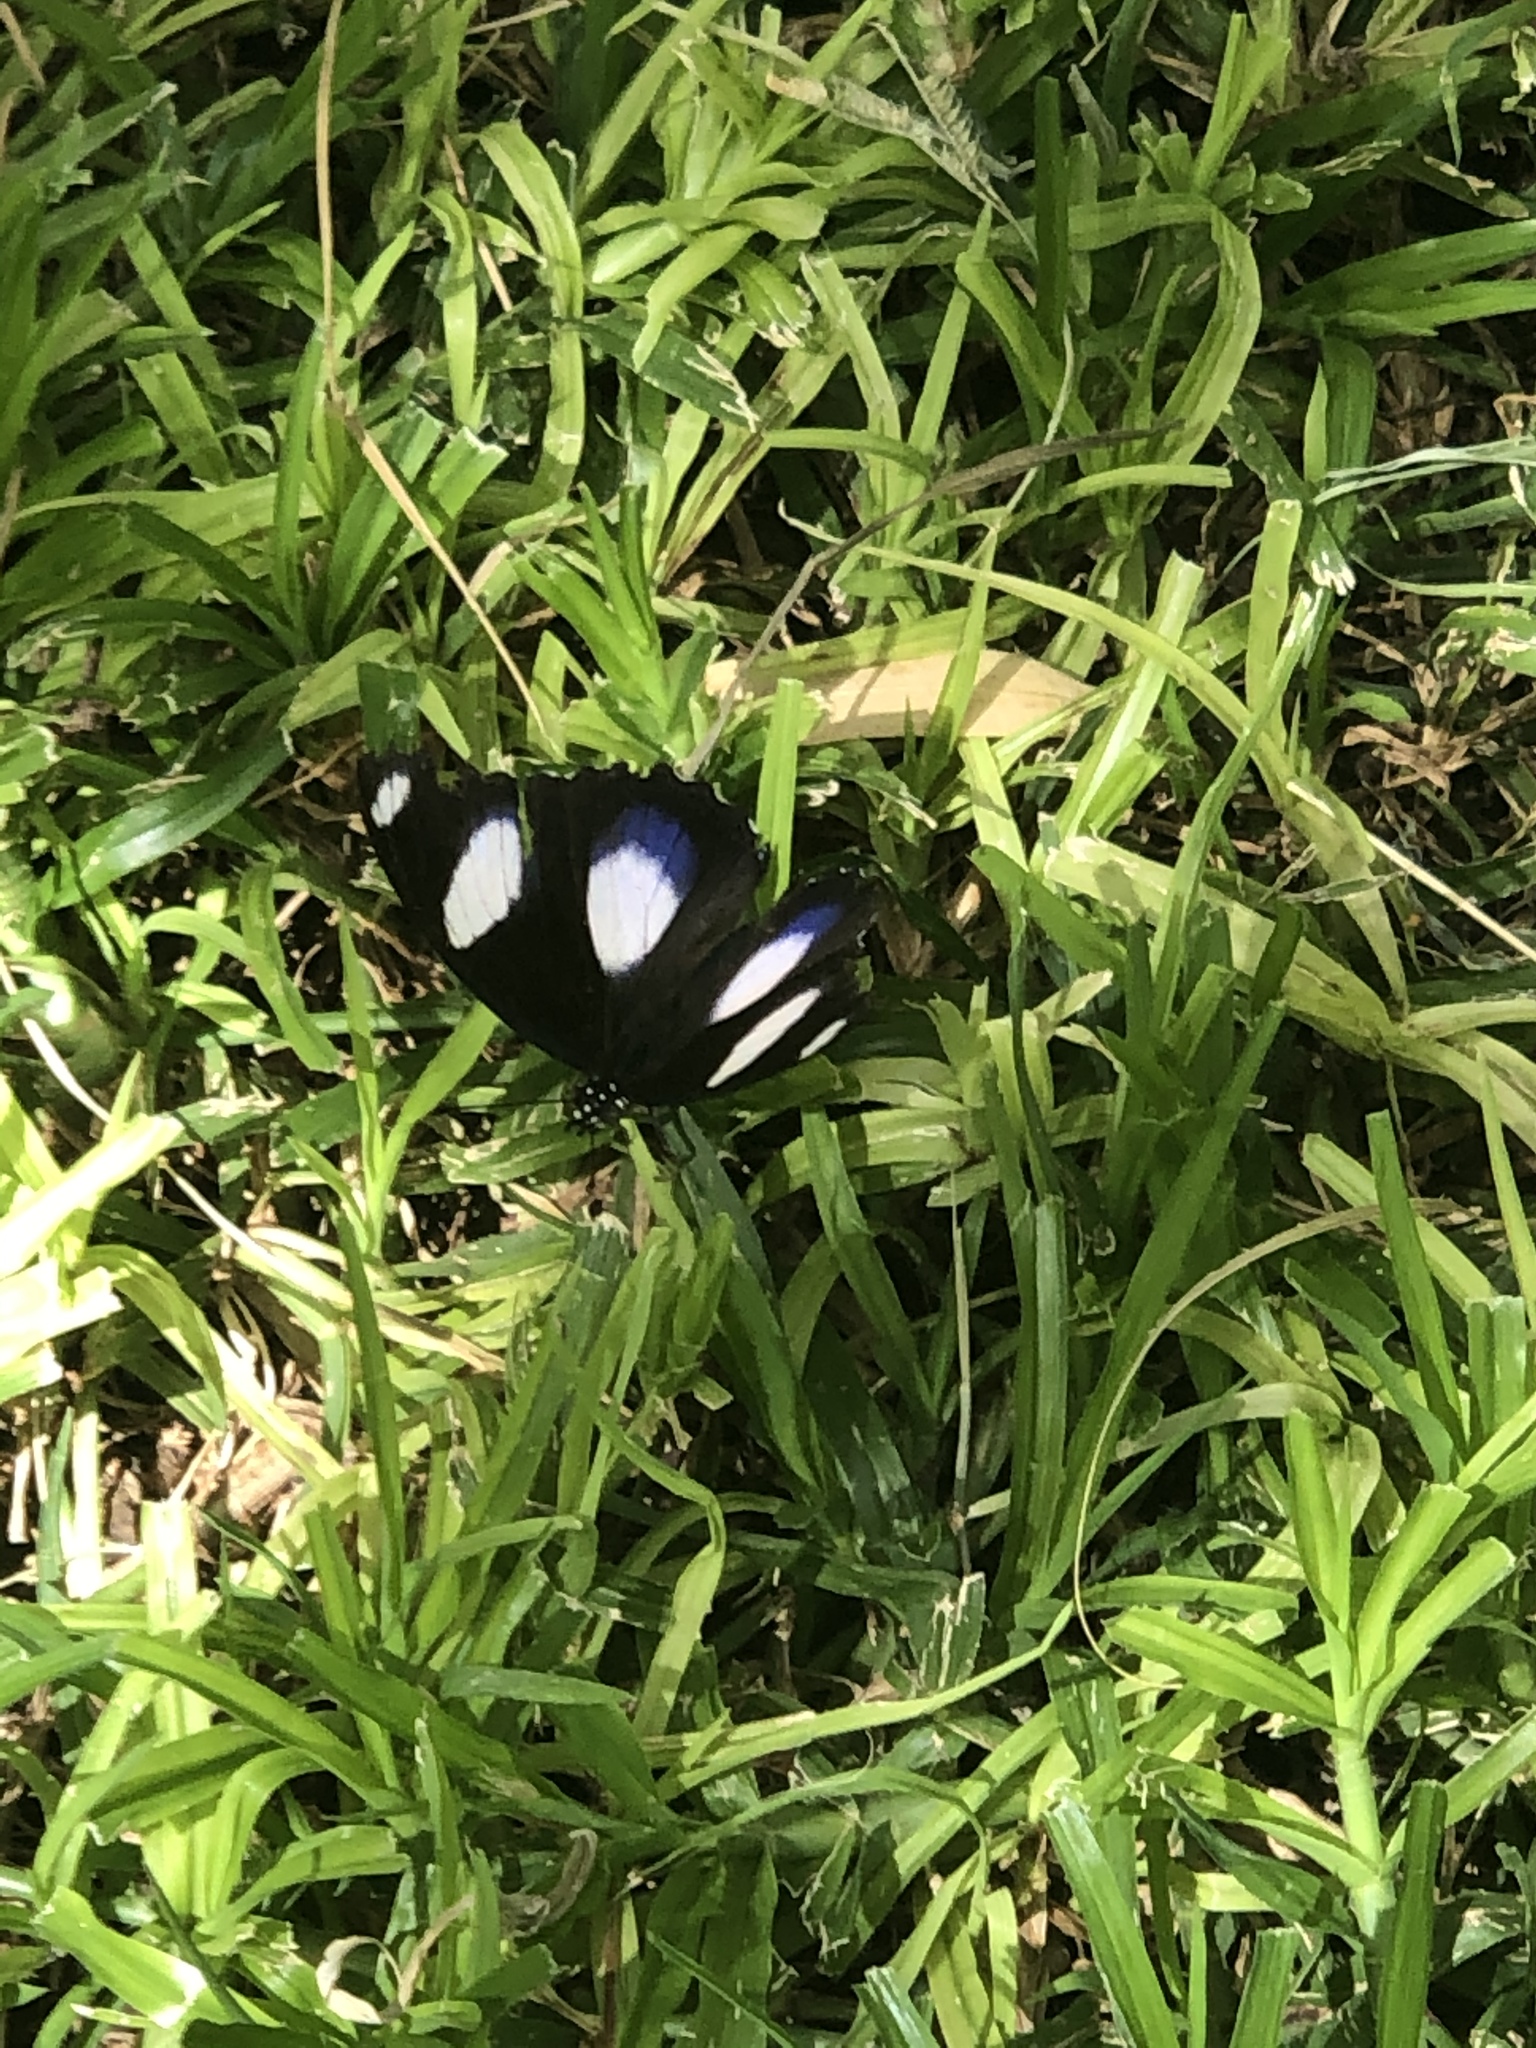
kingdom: Animalia
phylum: Arthropoda
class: Insecta
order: Lepidoptera
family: Nymphalidae
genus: Hypolimnas
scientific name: Hypolimnas misippus
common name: False plain tiger
